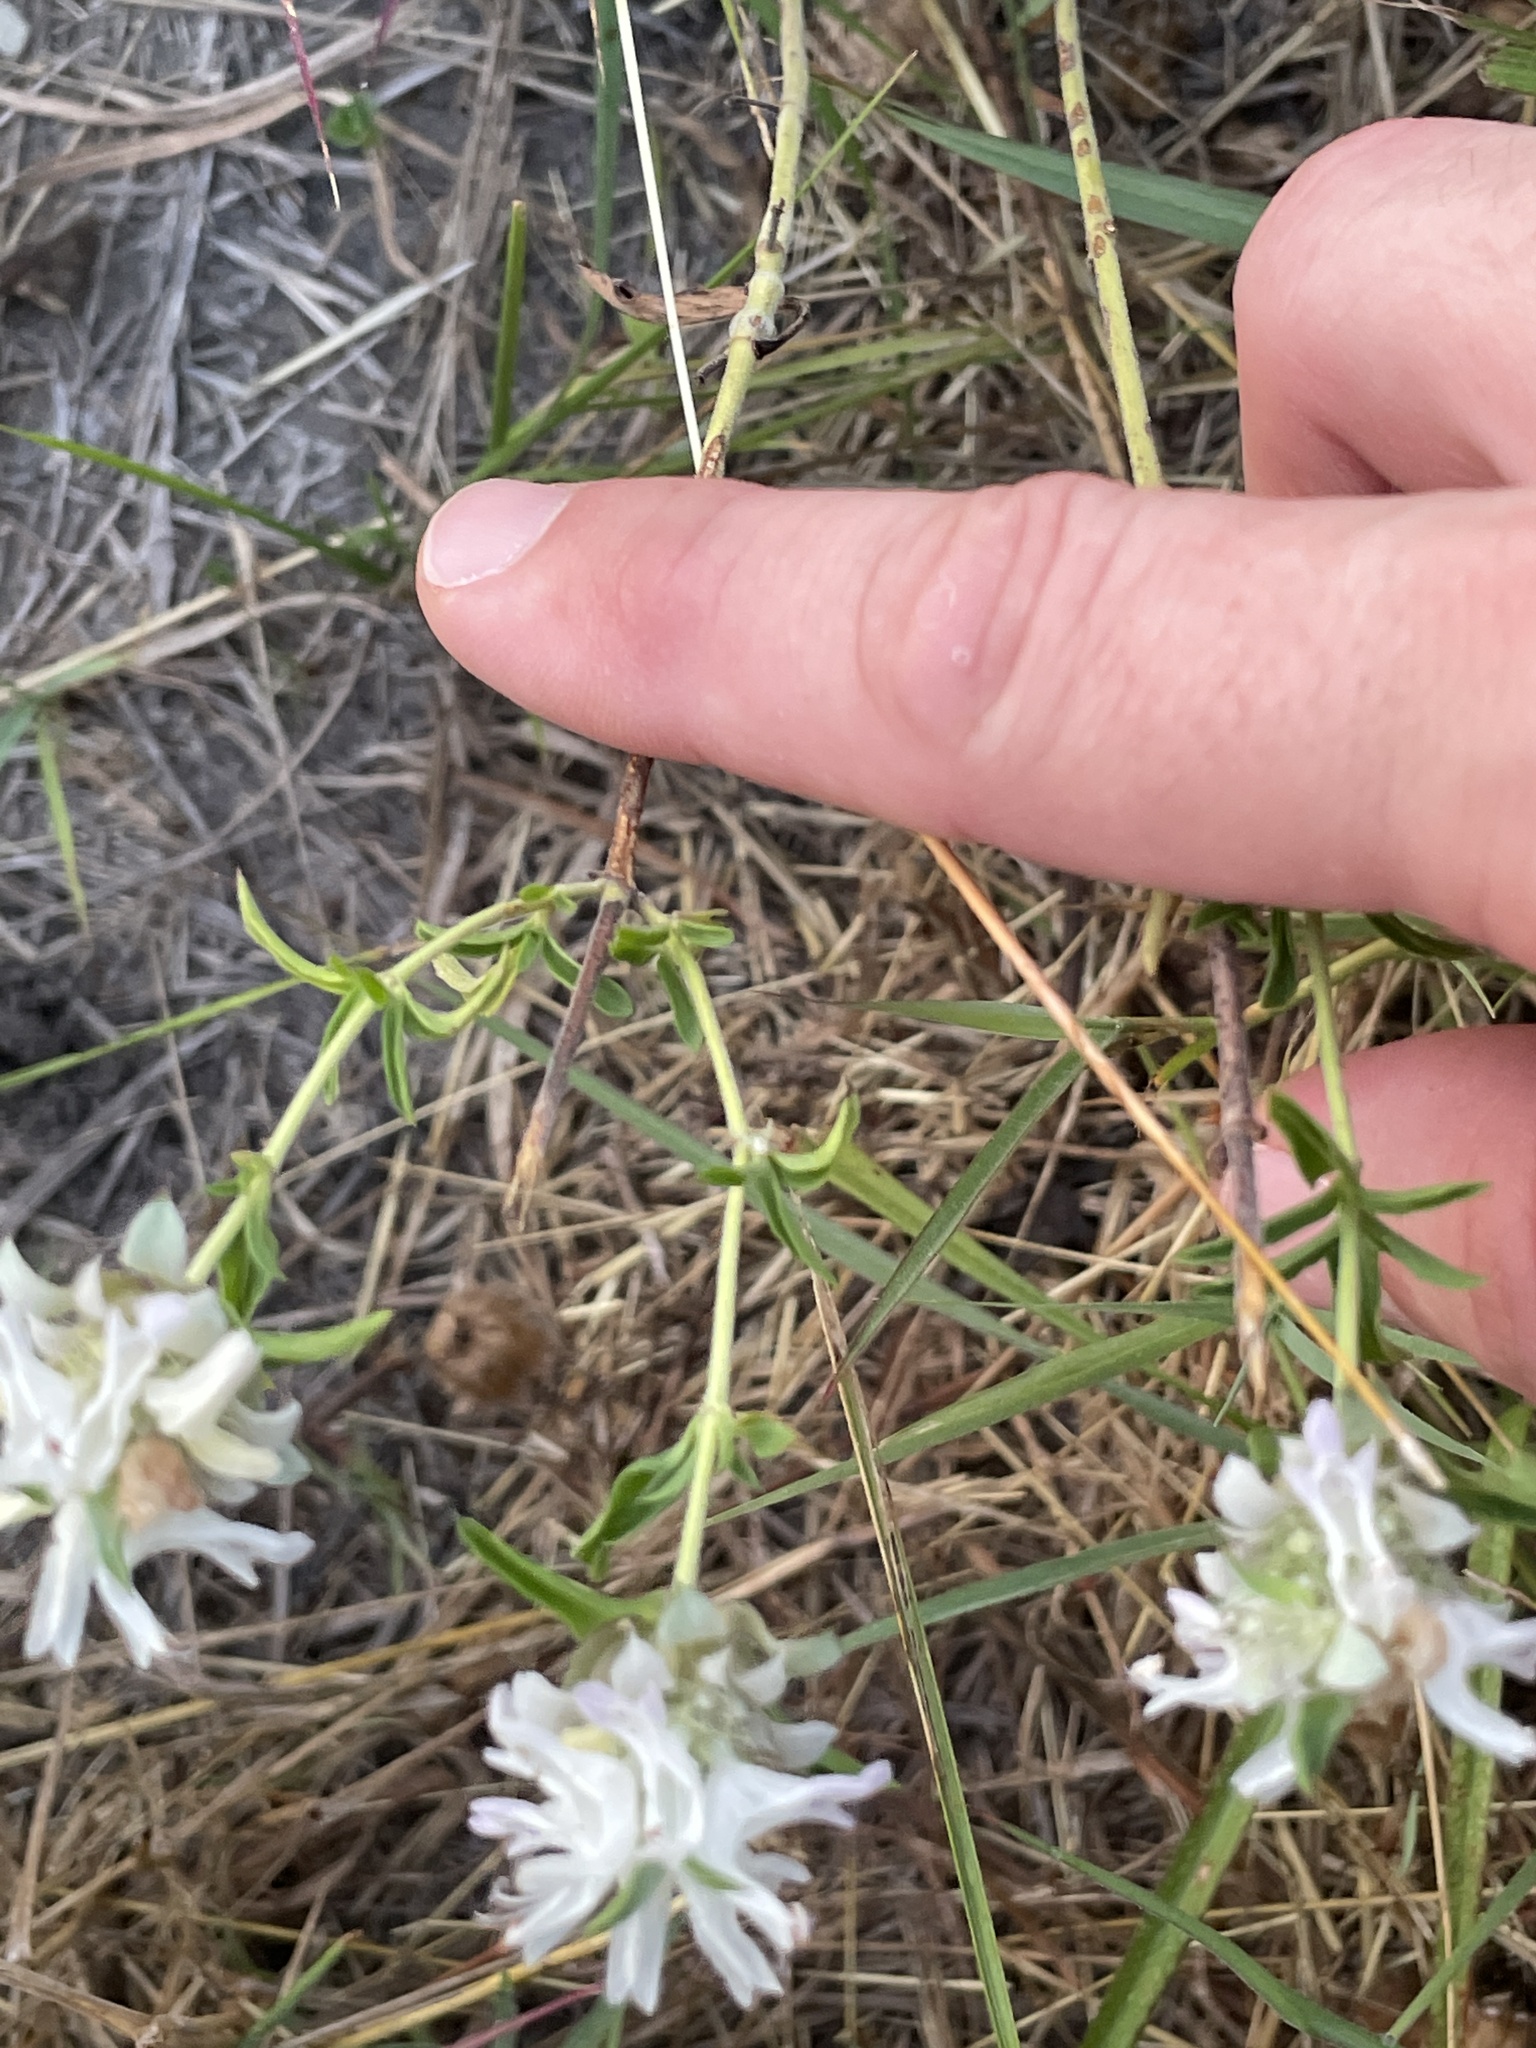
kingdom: Plantae
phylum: Tracheophyta
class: Magnoliopsida
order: Lamiales
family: Lamiaceae
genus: Monarda
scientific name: Monarda citriodora
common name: Lemon beebalm
